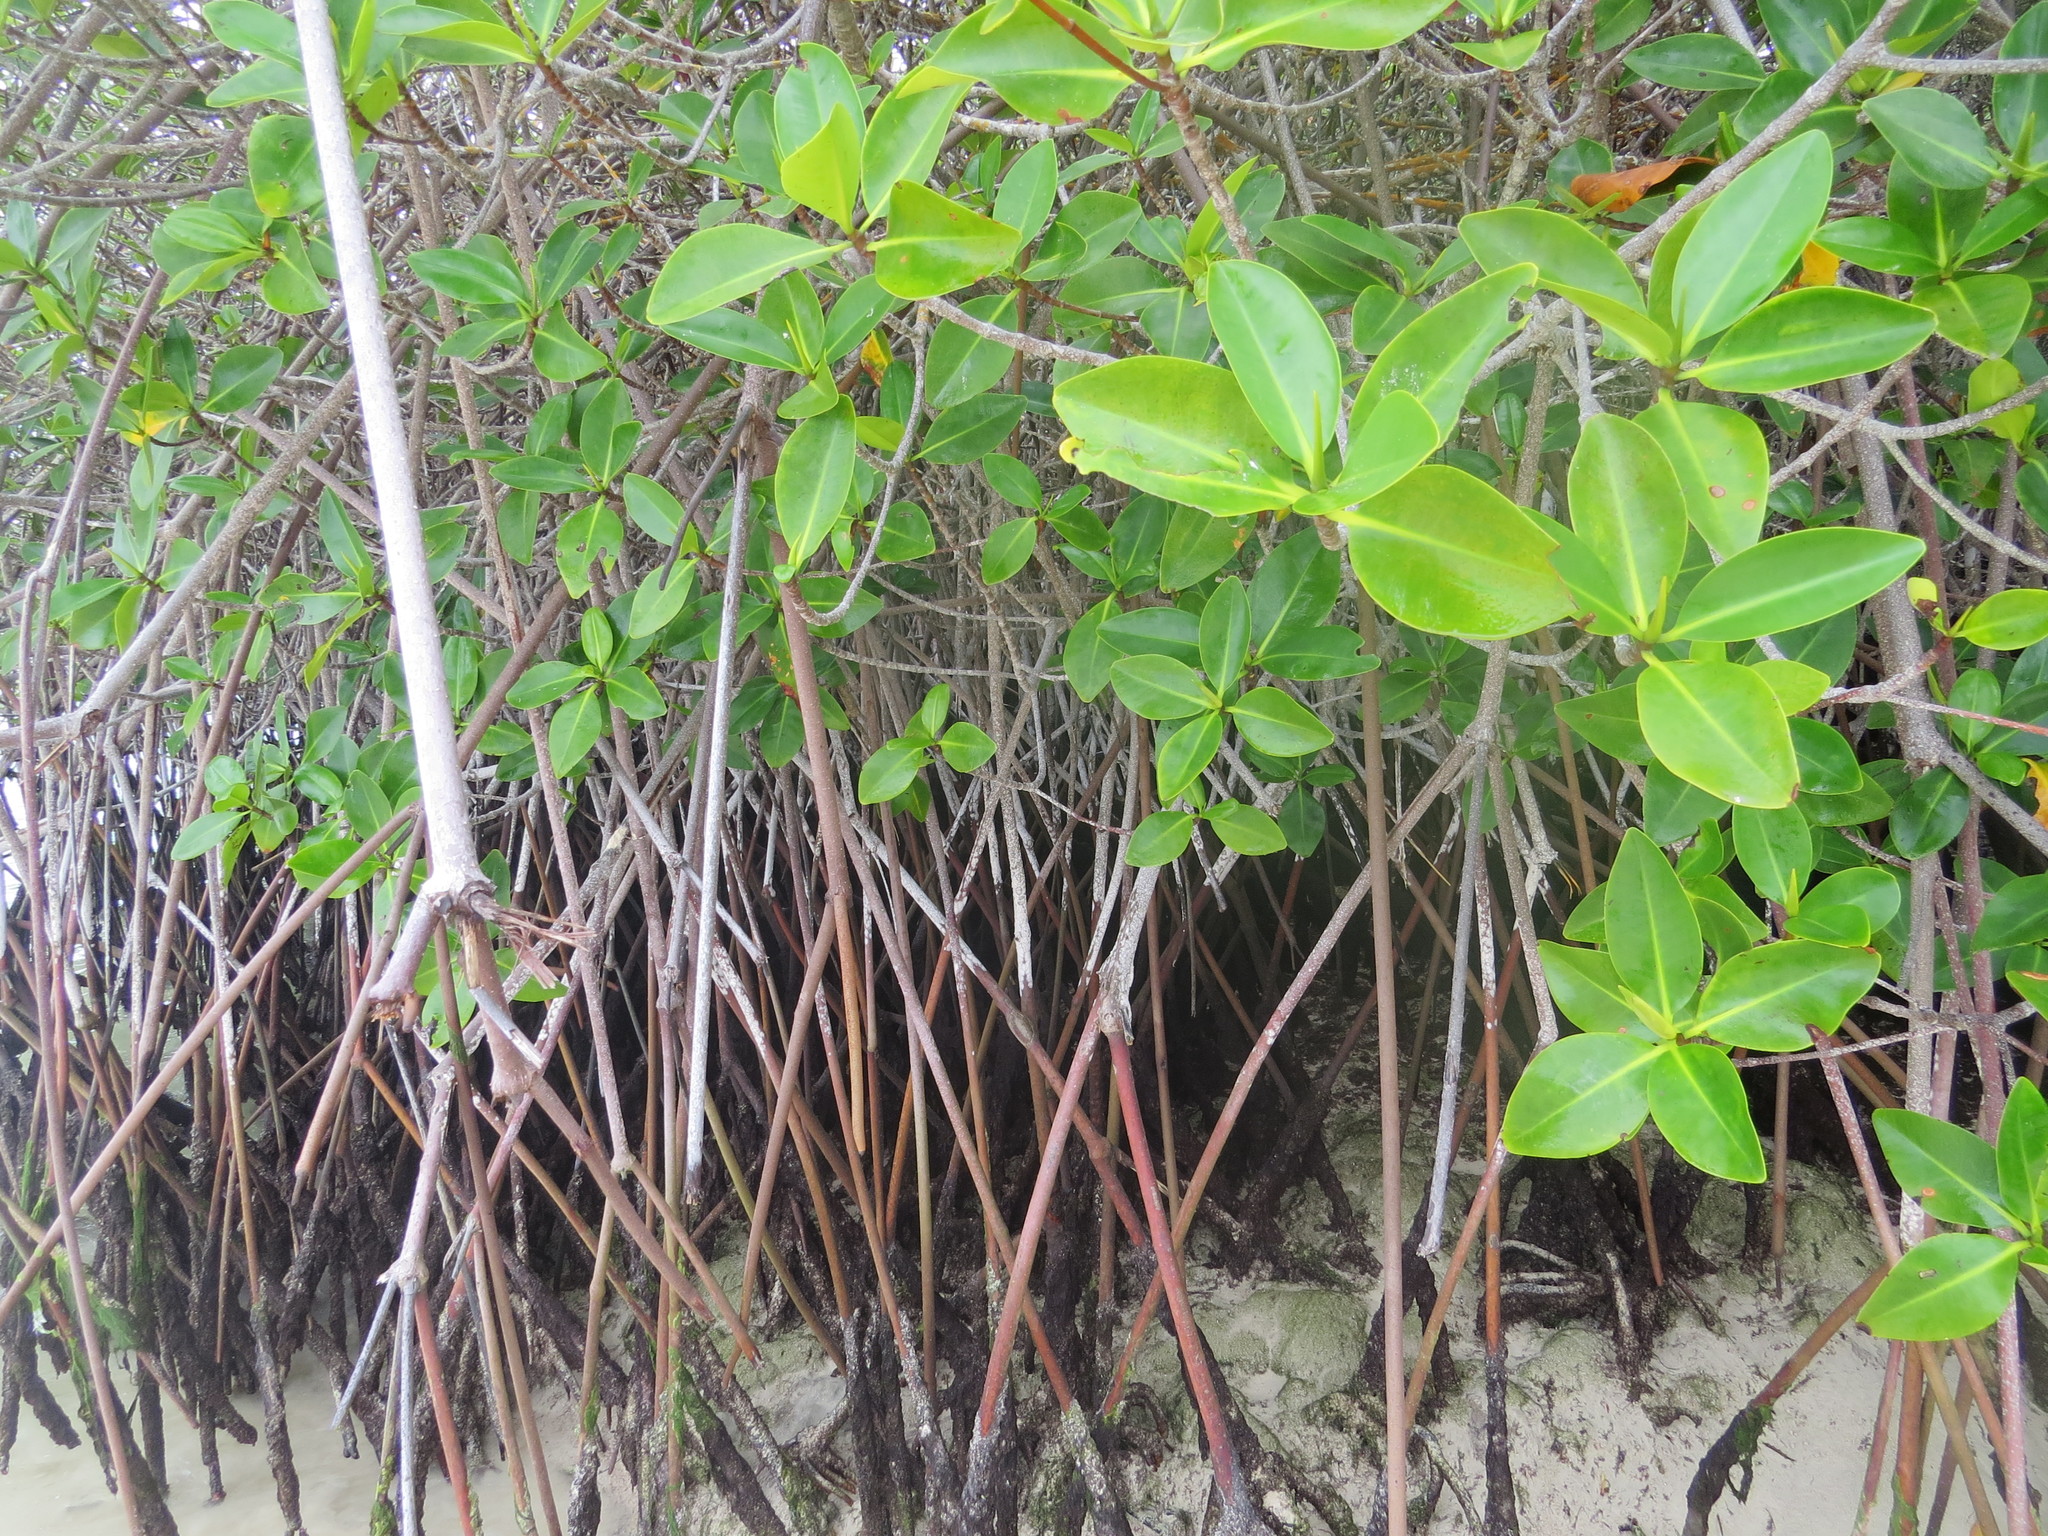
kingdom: Plantae
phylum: Tracheophyta
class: Magnoliopsida
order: Malpighiales
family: Rhizophoraceae
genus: Rhizophora
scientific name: Rhizophora mangle
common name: Red mangrove
